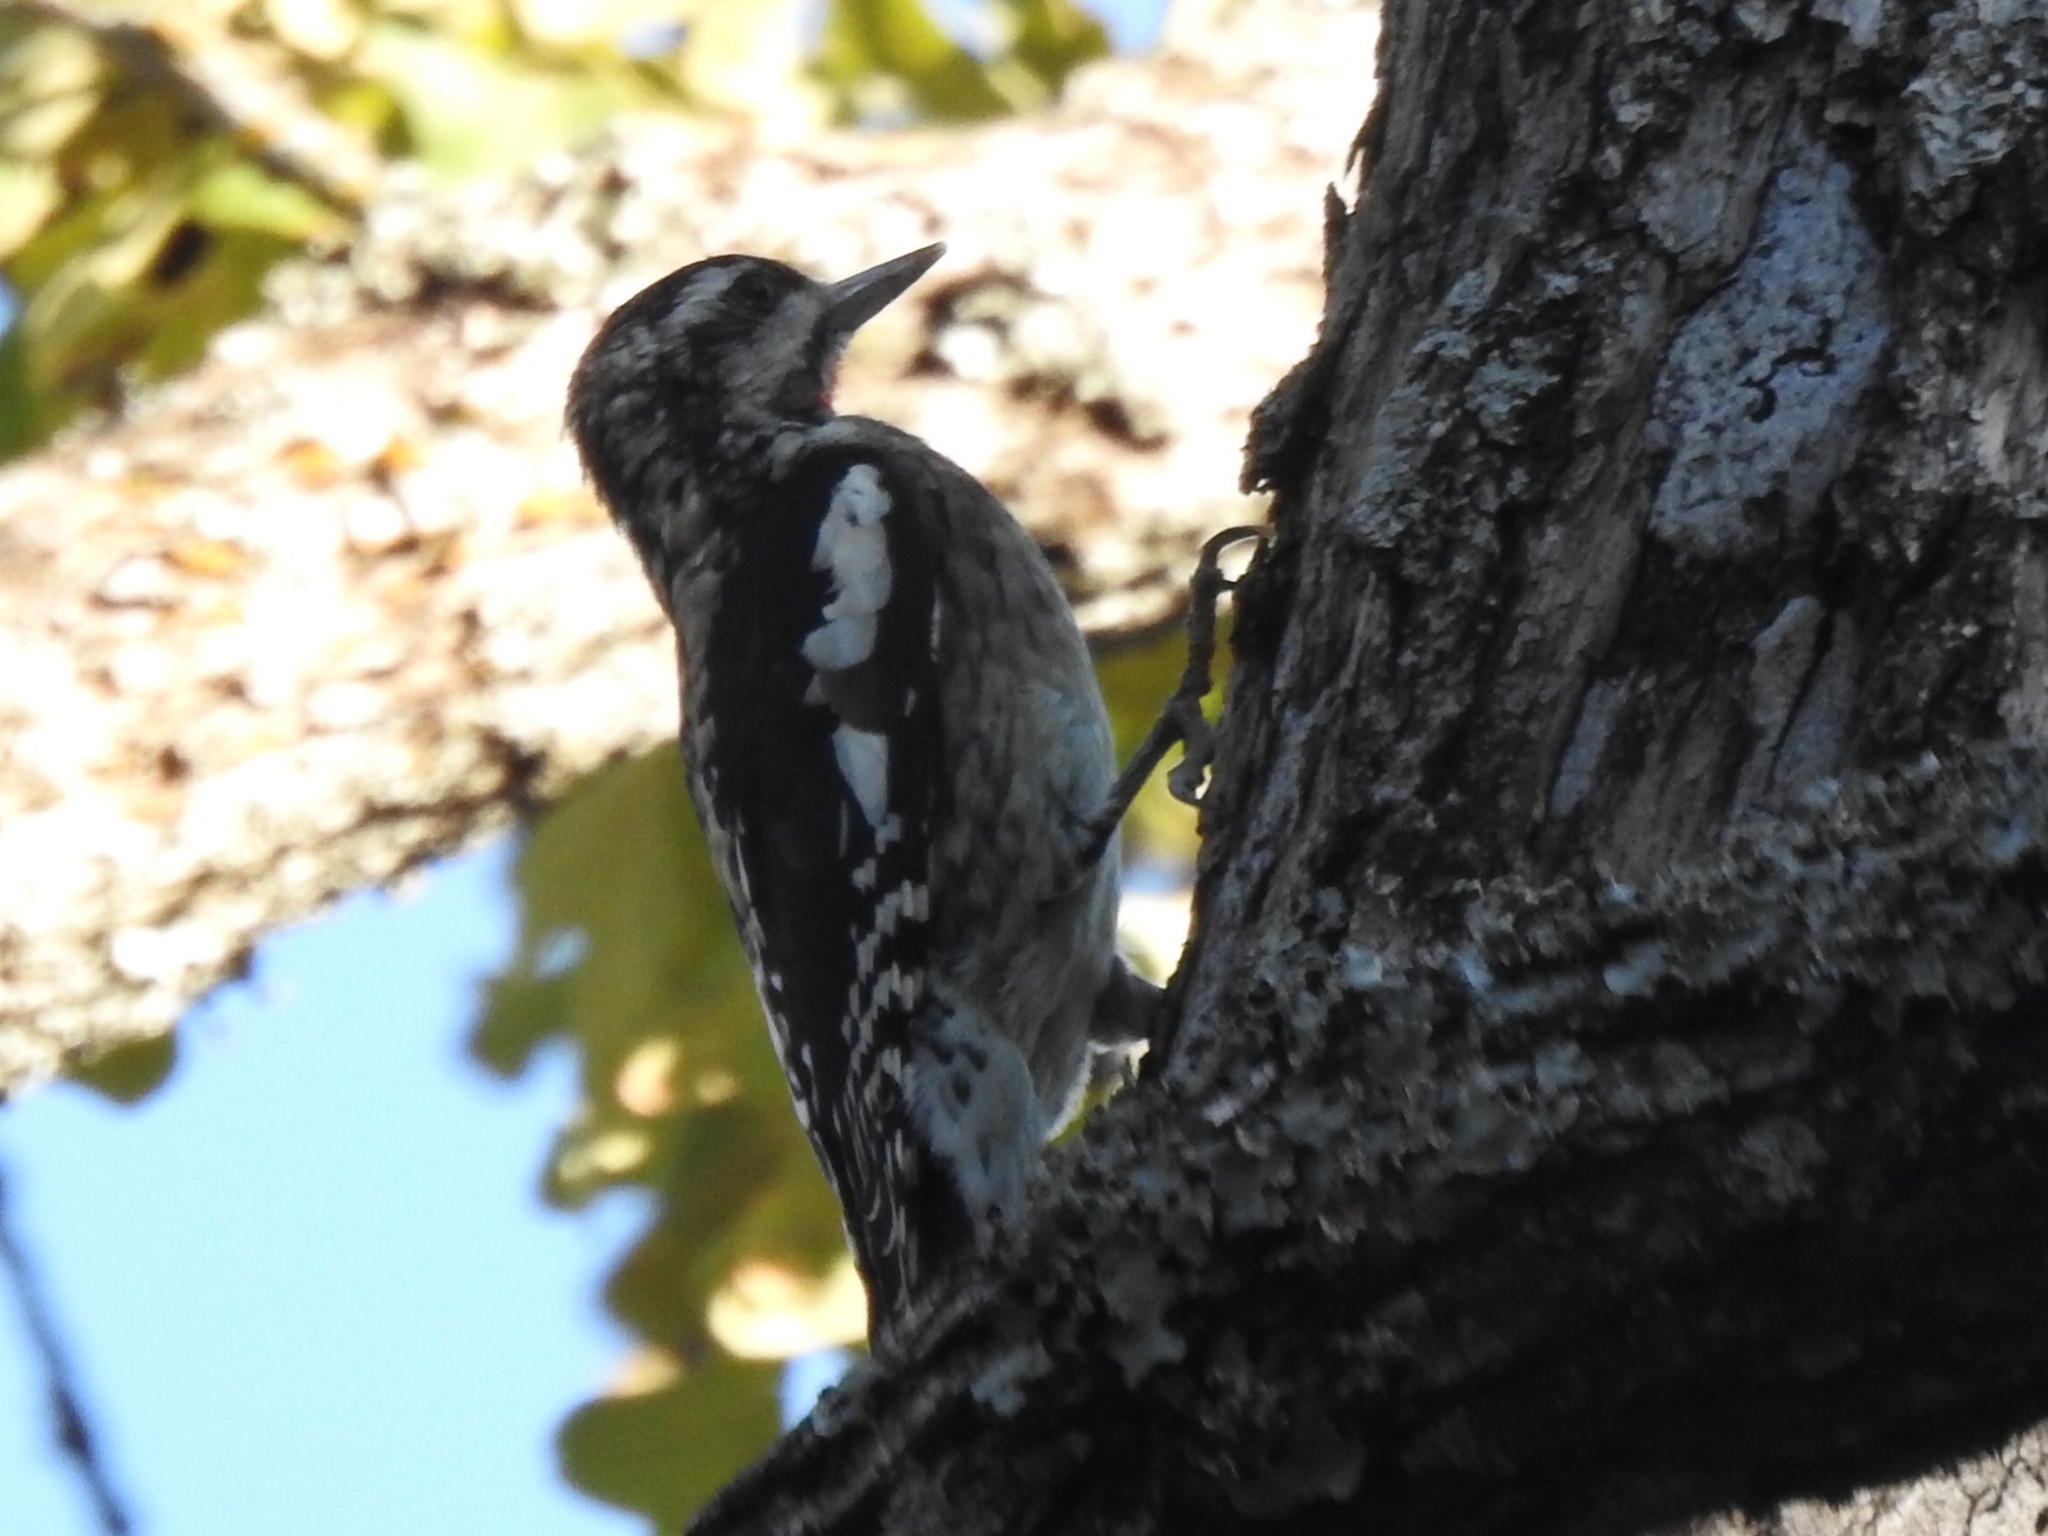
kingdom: Animalia
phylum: Chordata
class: Aves
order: Piciformes
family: Picidae
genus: Sphyrapicus
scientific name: Sphyrapicus varius
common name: Yellow-bellied sapsucker
